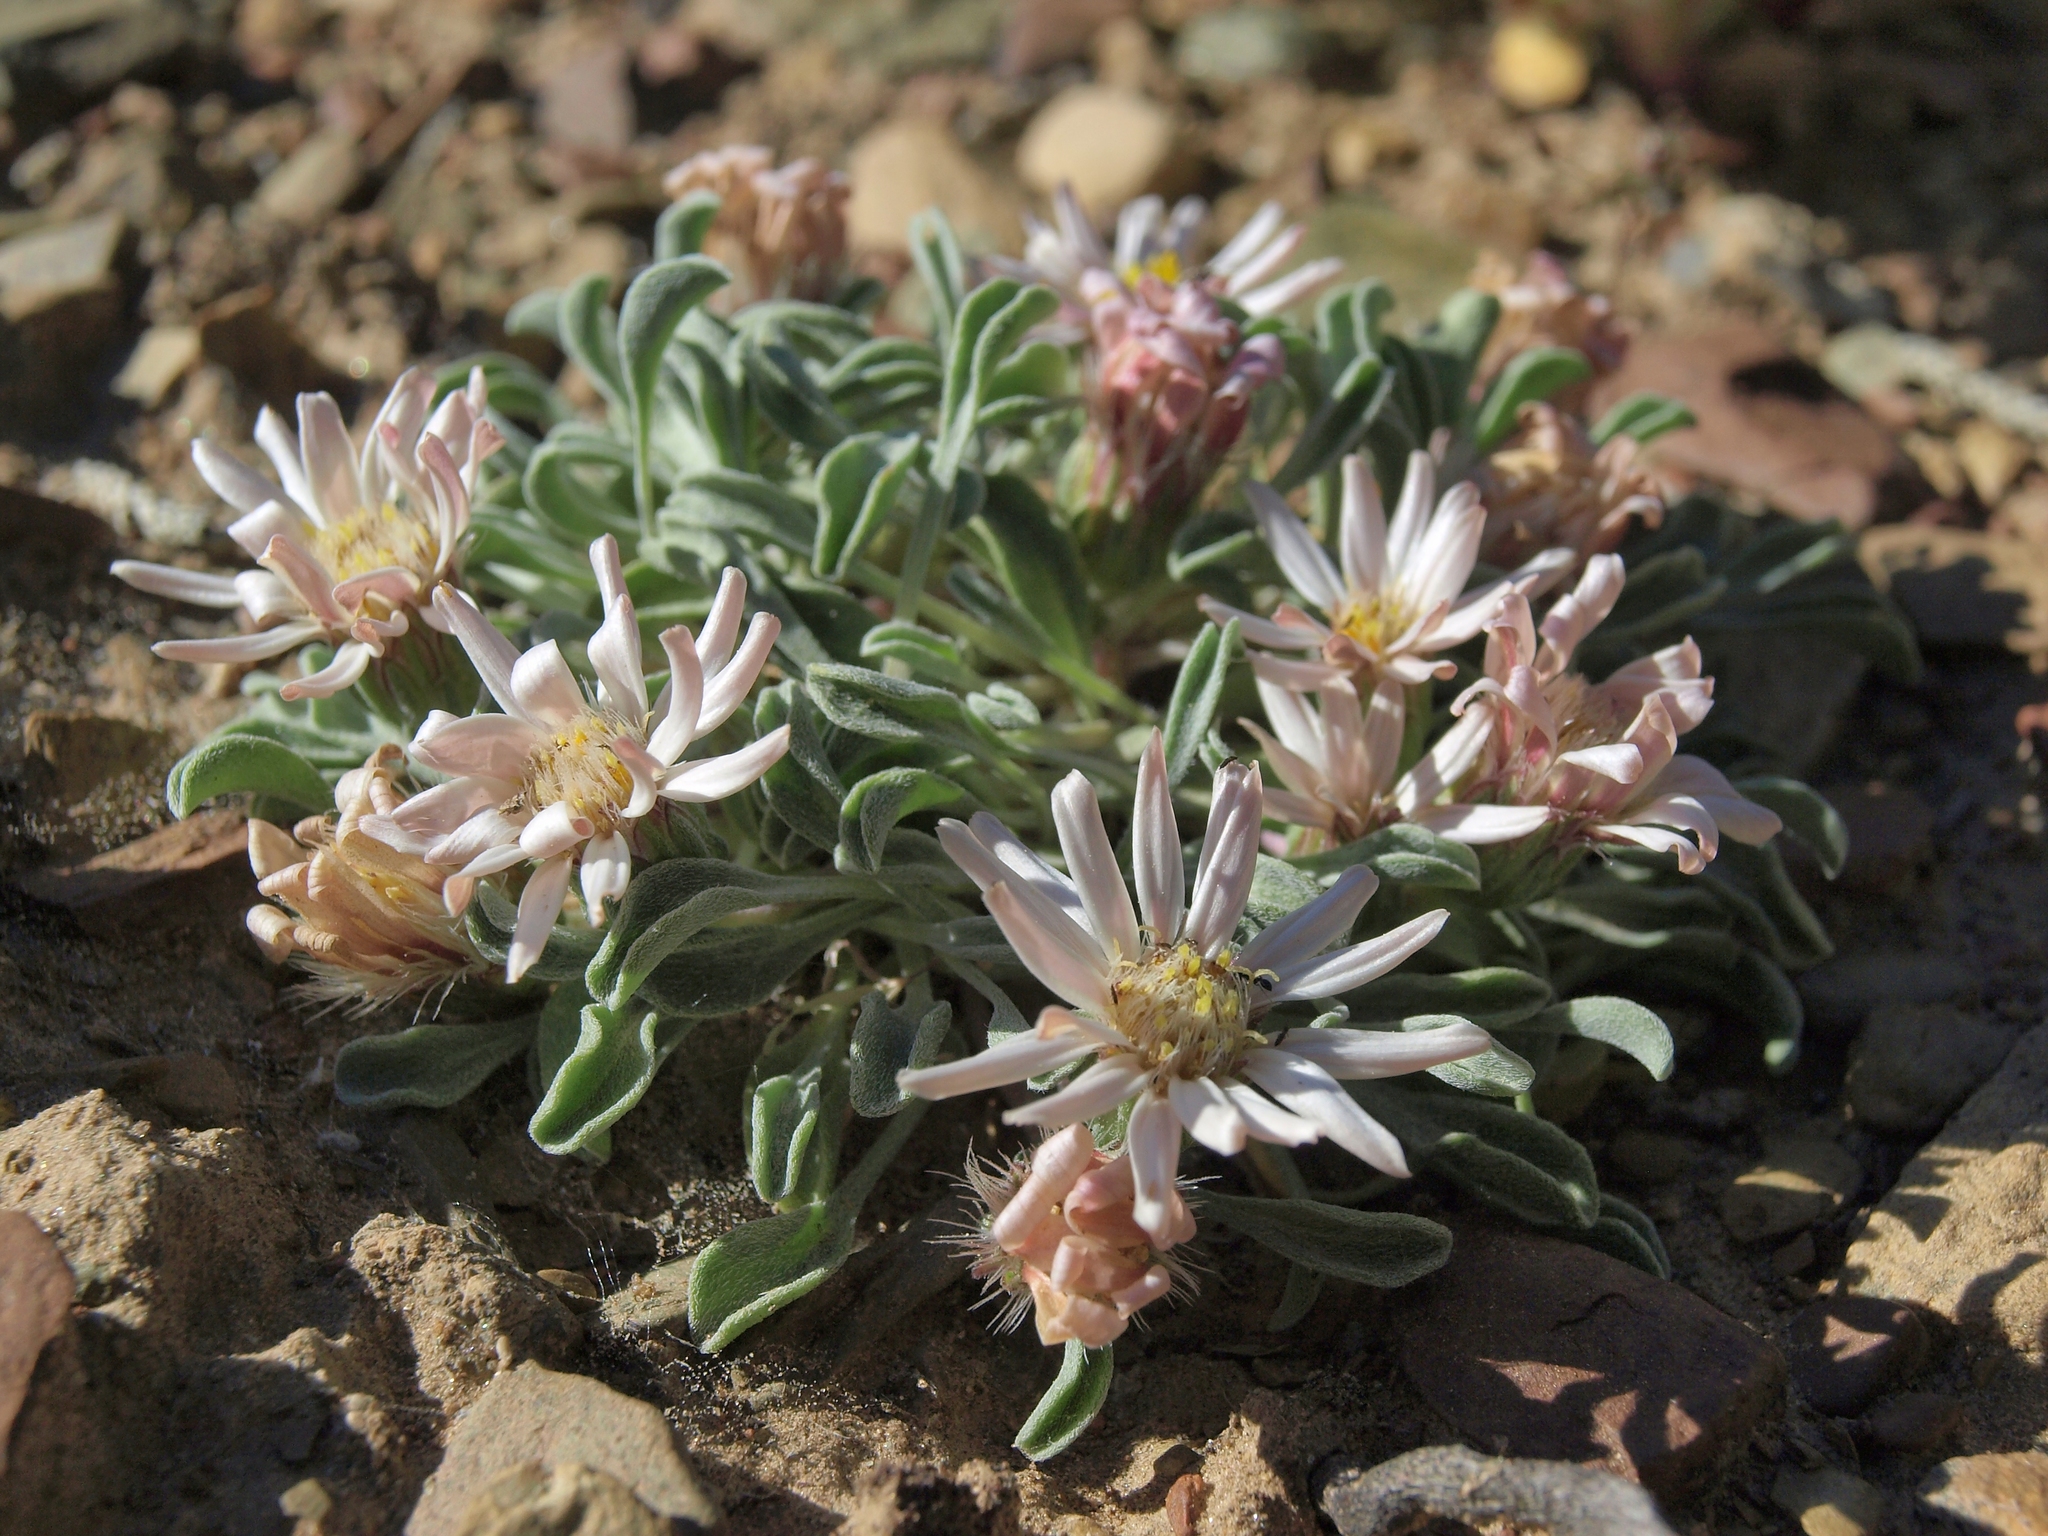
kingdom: Plantae
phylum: Tracheophyta
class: Magnoliopsida
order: Asterales
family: Asteraceae
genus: Townsendia
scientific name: Townsendia scapigera
